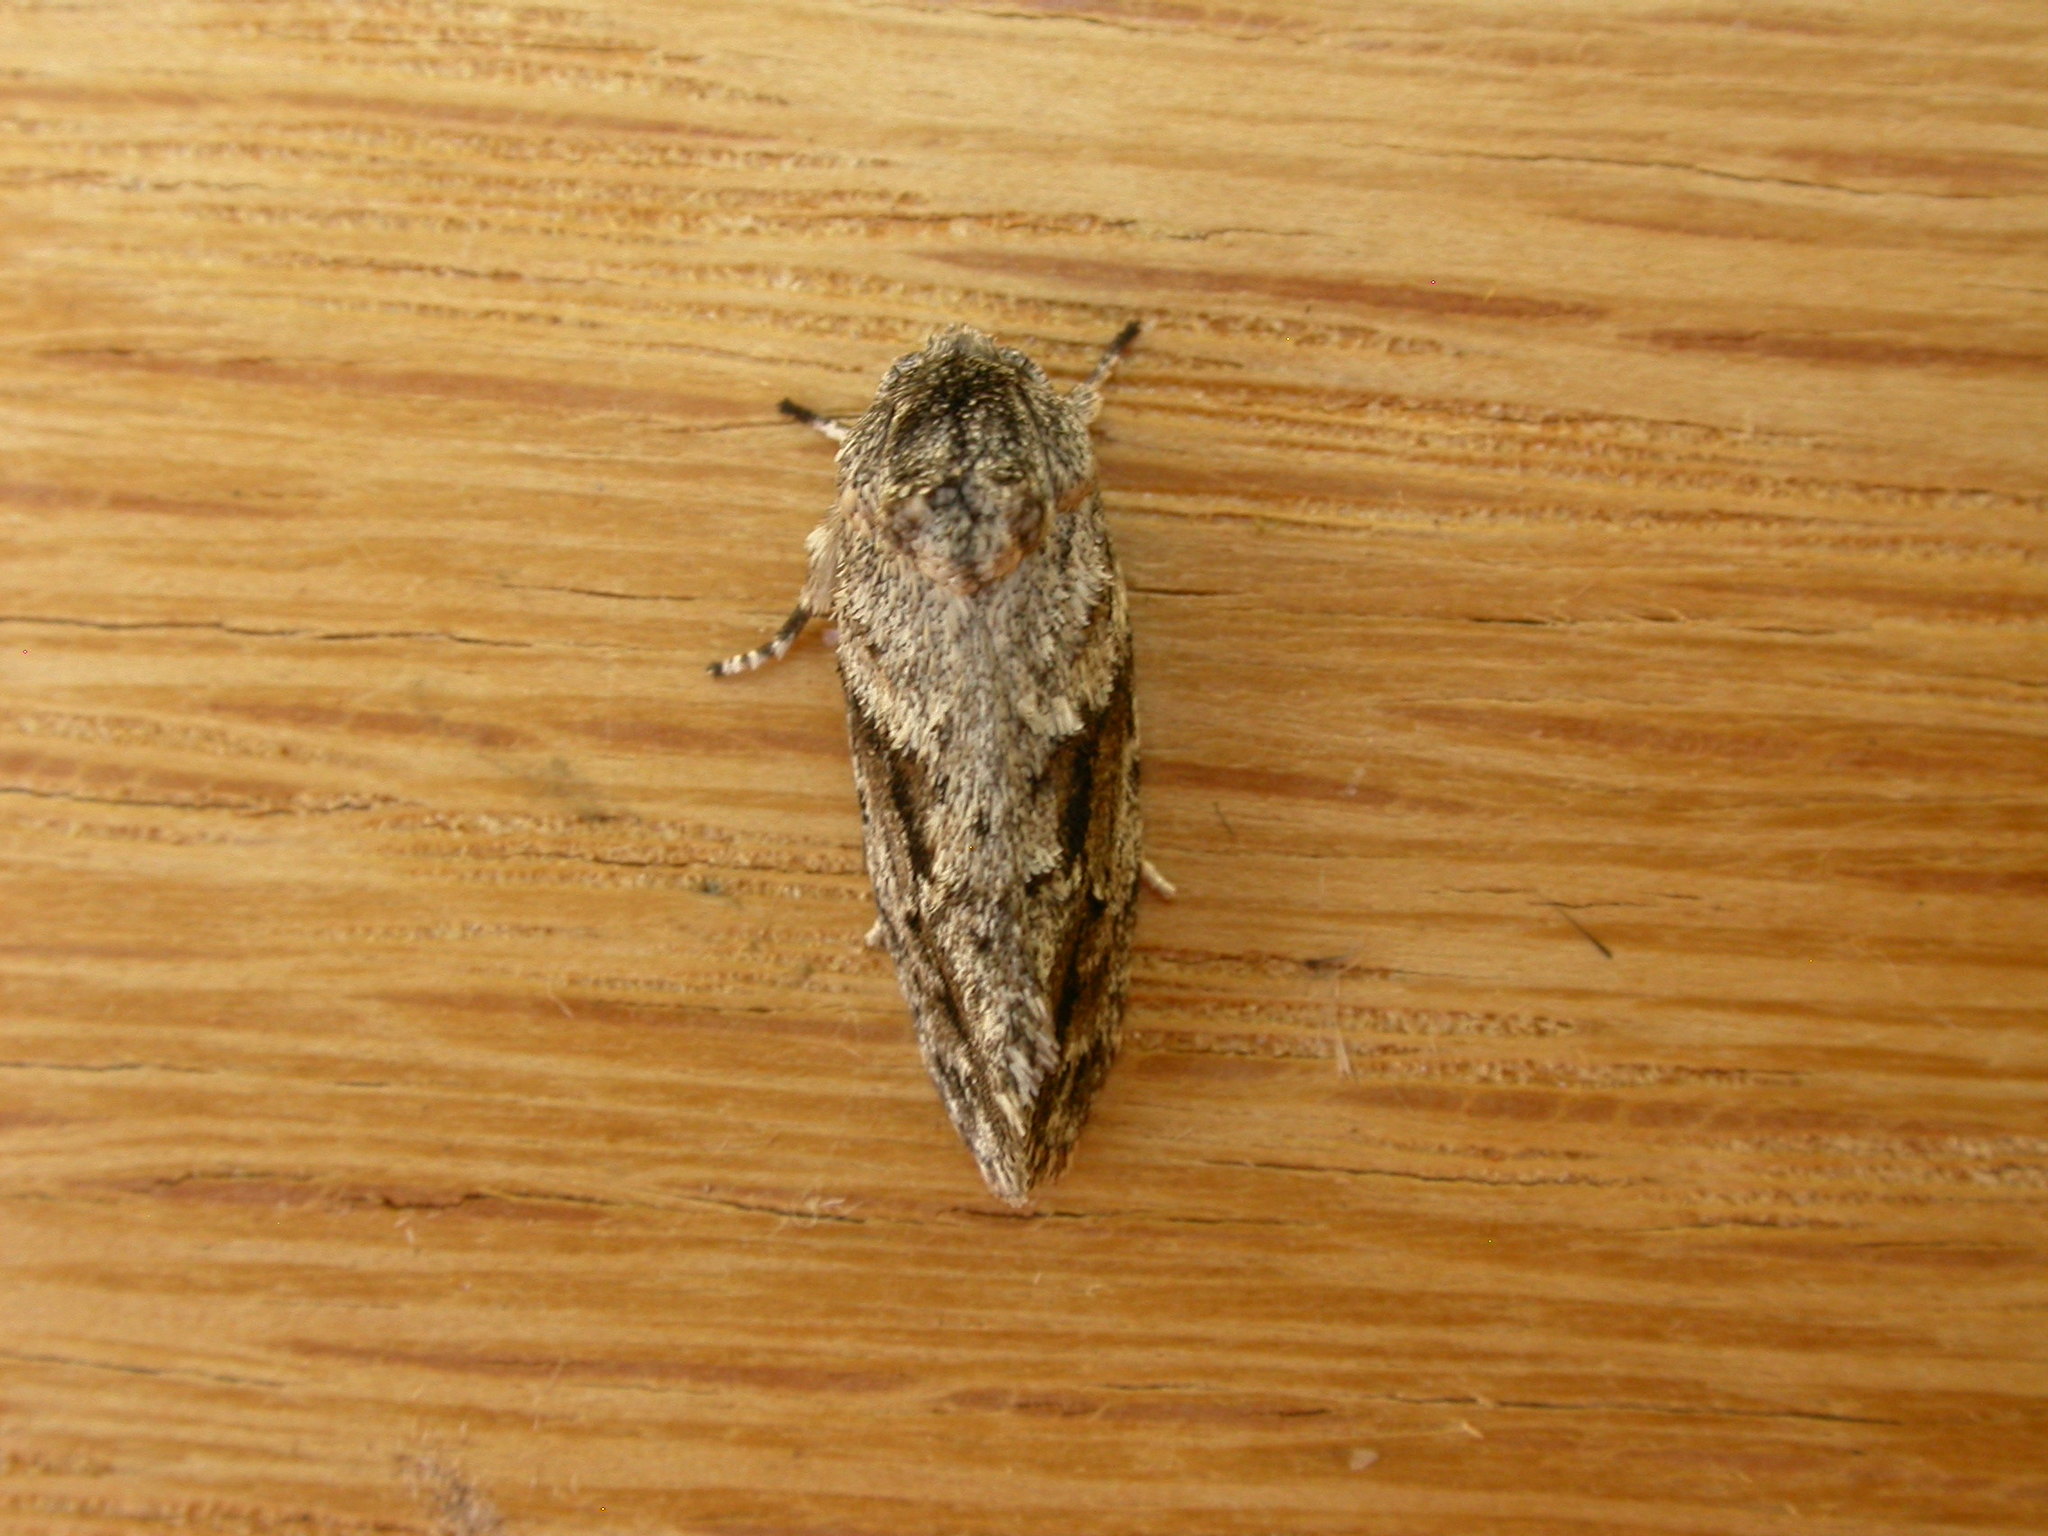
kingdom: Animalia
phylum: Arthropoda
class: Insecta
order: Lepidoptera
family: Depressariidae
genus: Agriophara
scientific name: Agriophara confertella
